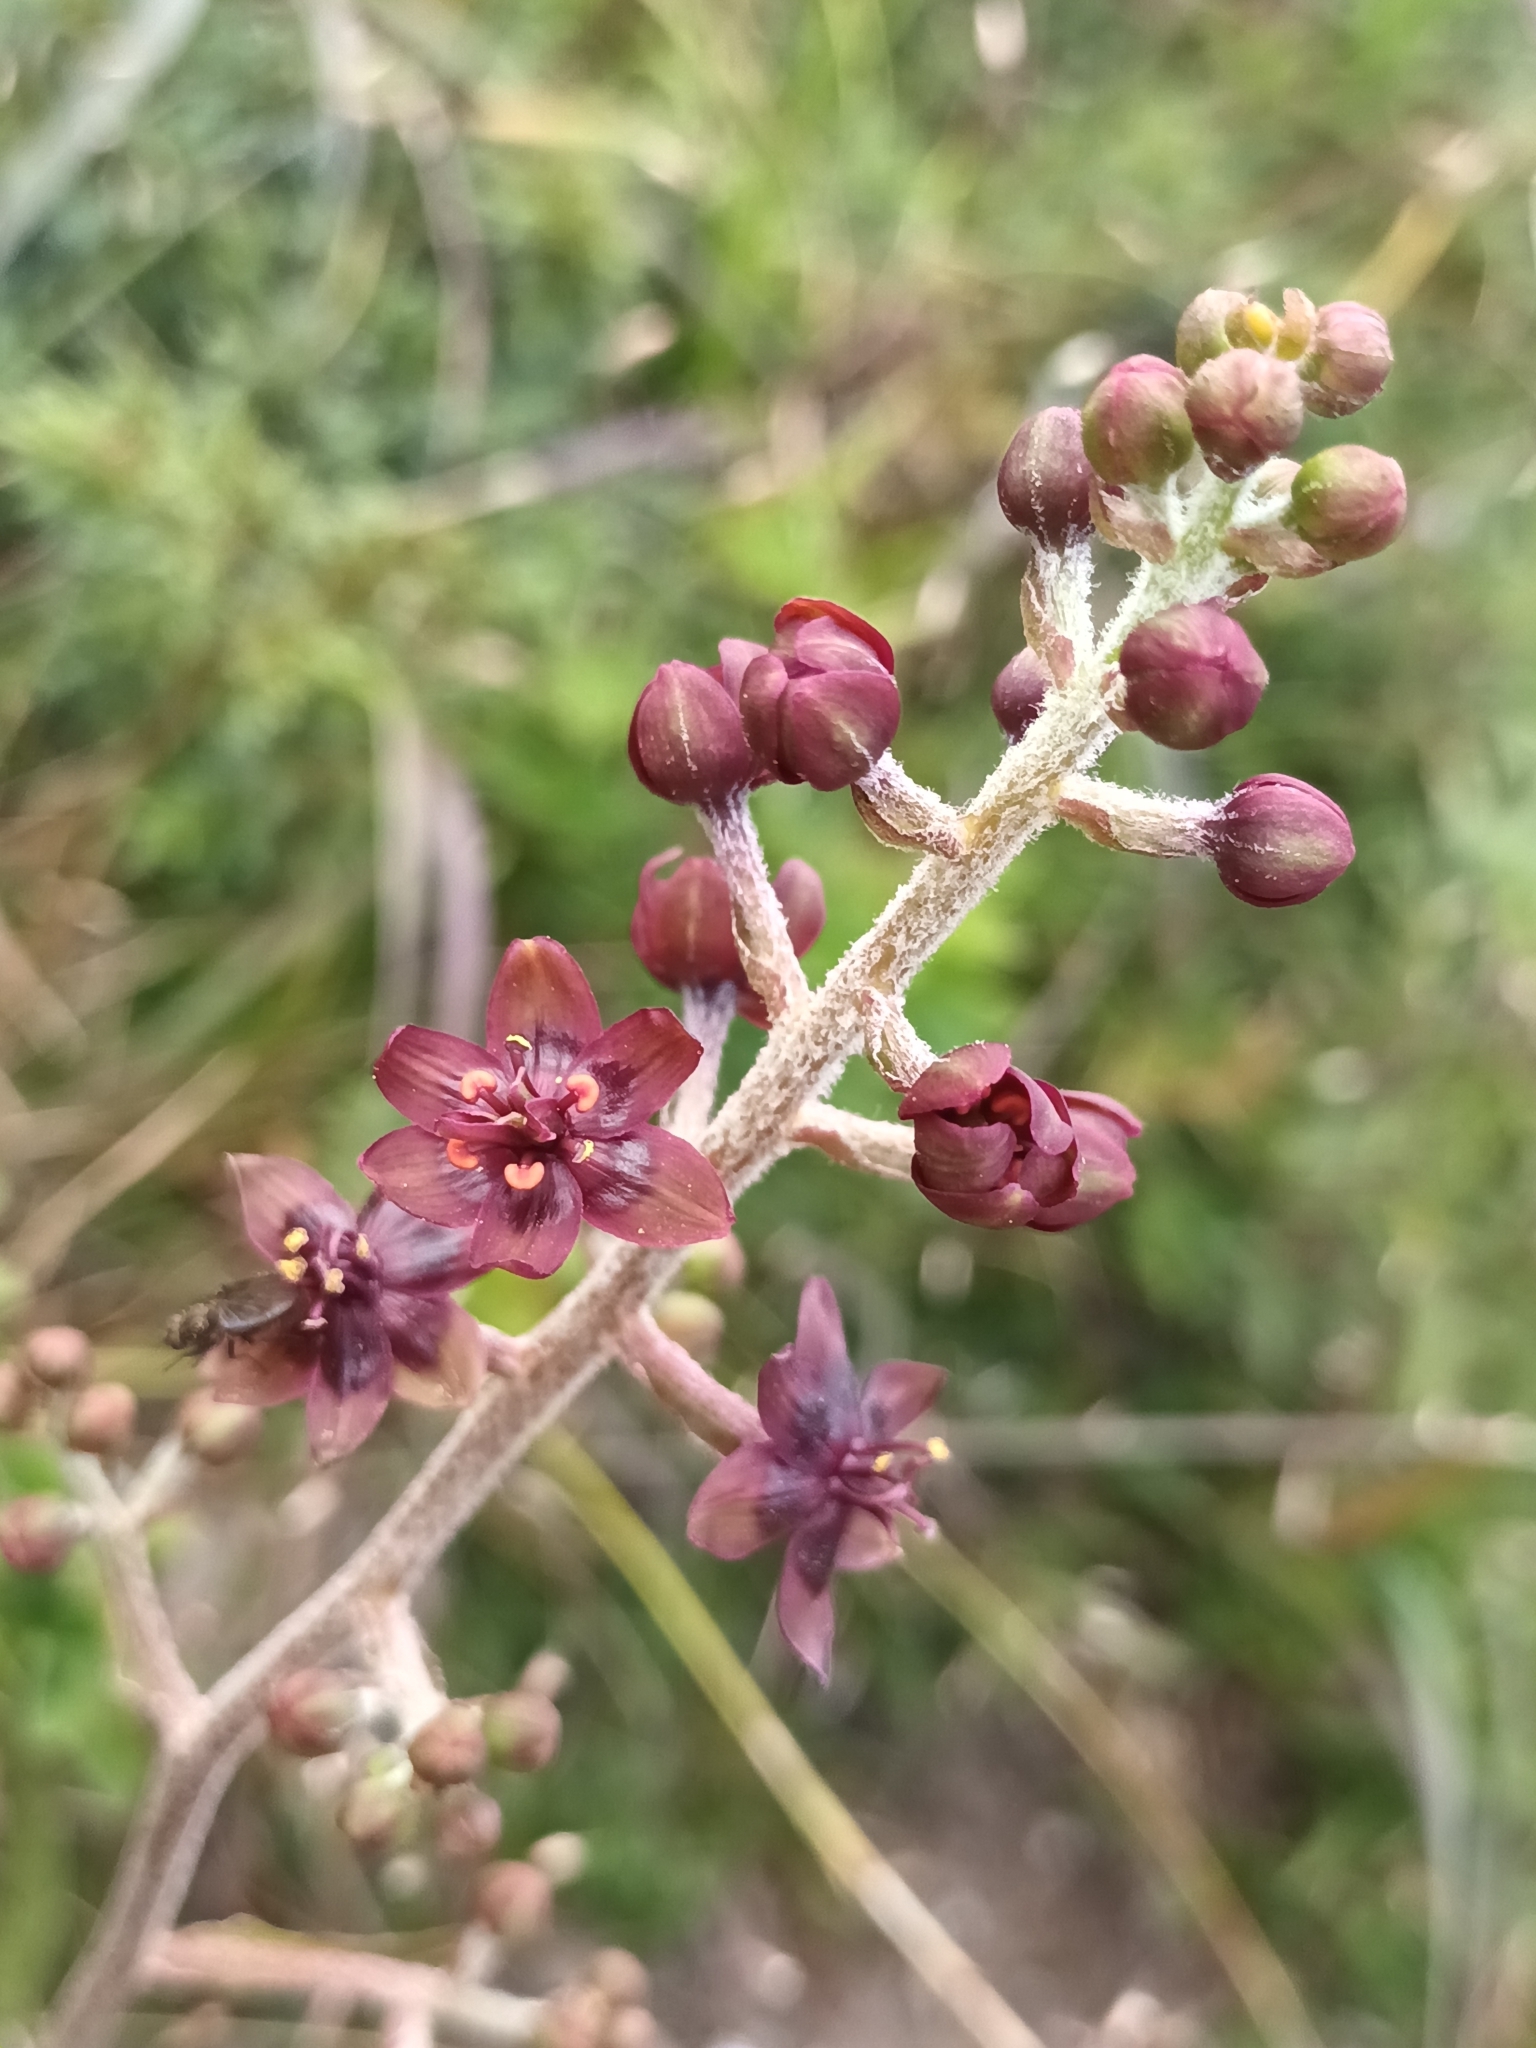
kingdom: Plantae
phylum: Tracheophyta
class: Liliopsida
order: Liliales
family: Melanthiaceae
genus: Veratrum
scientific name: Veratrum formosanum
